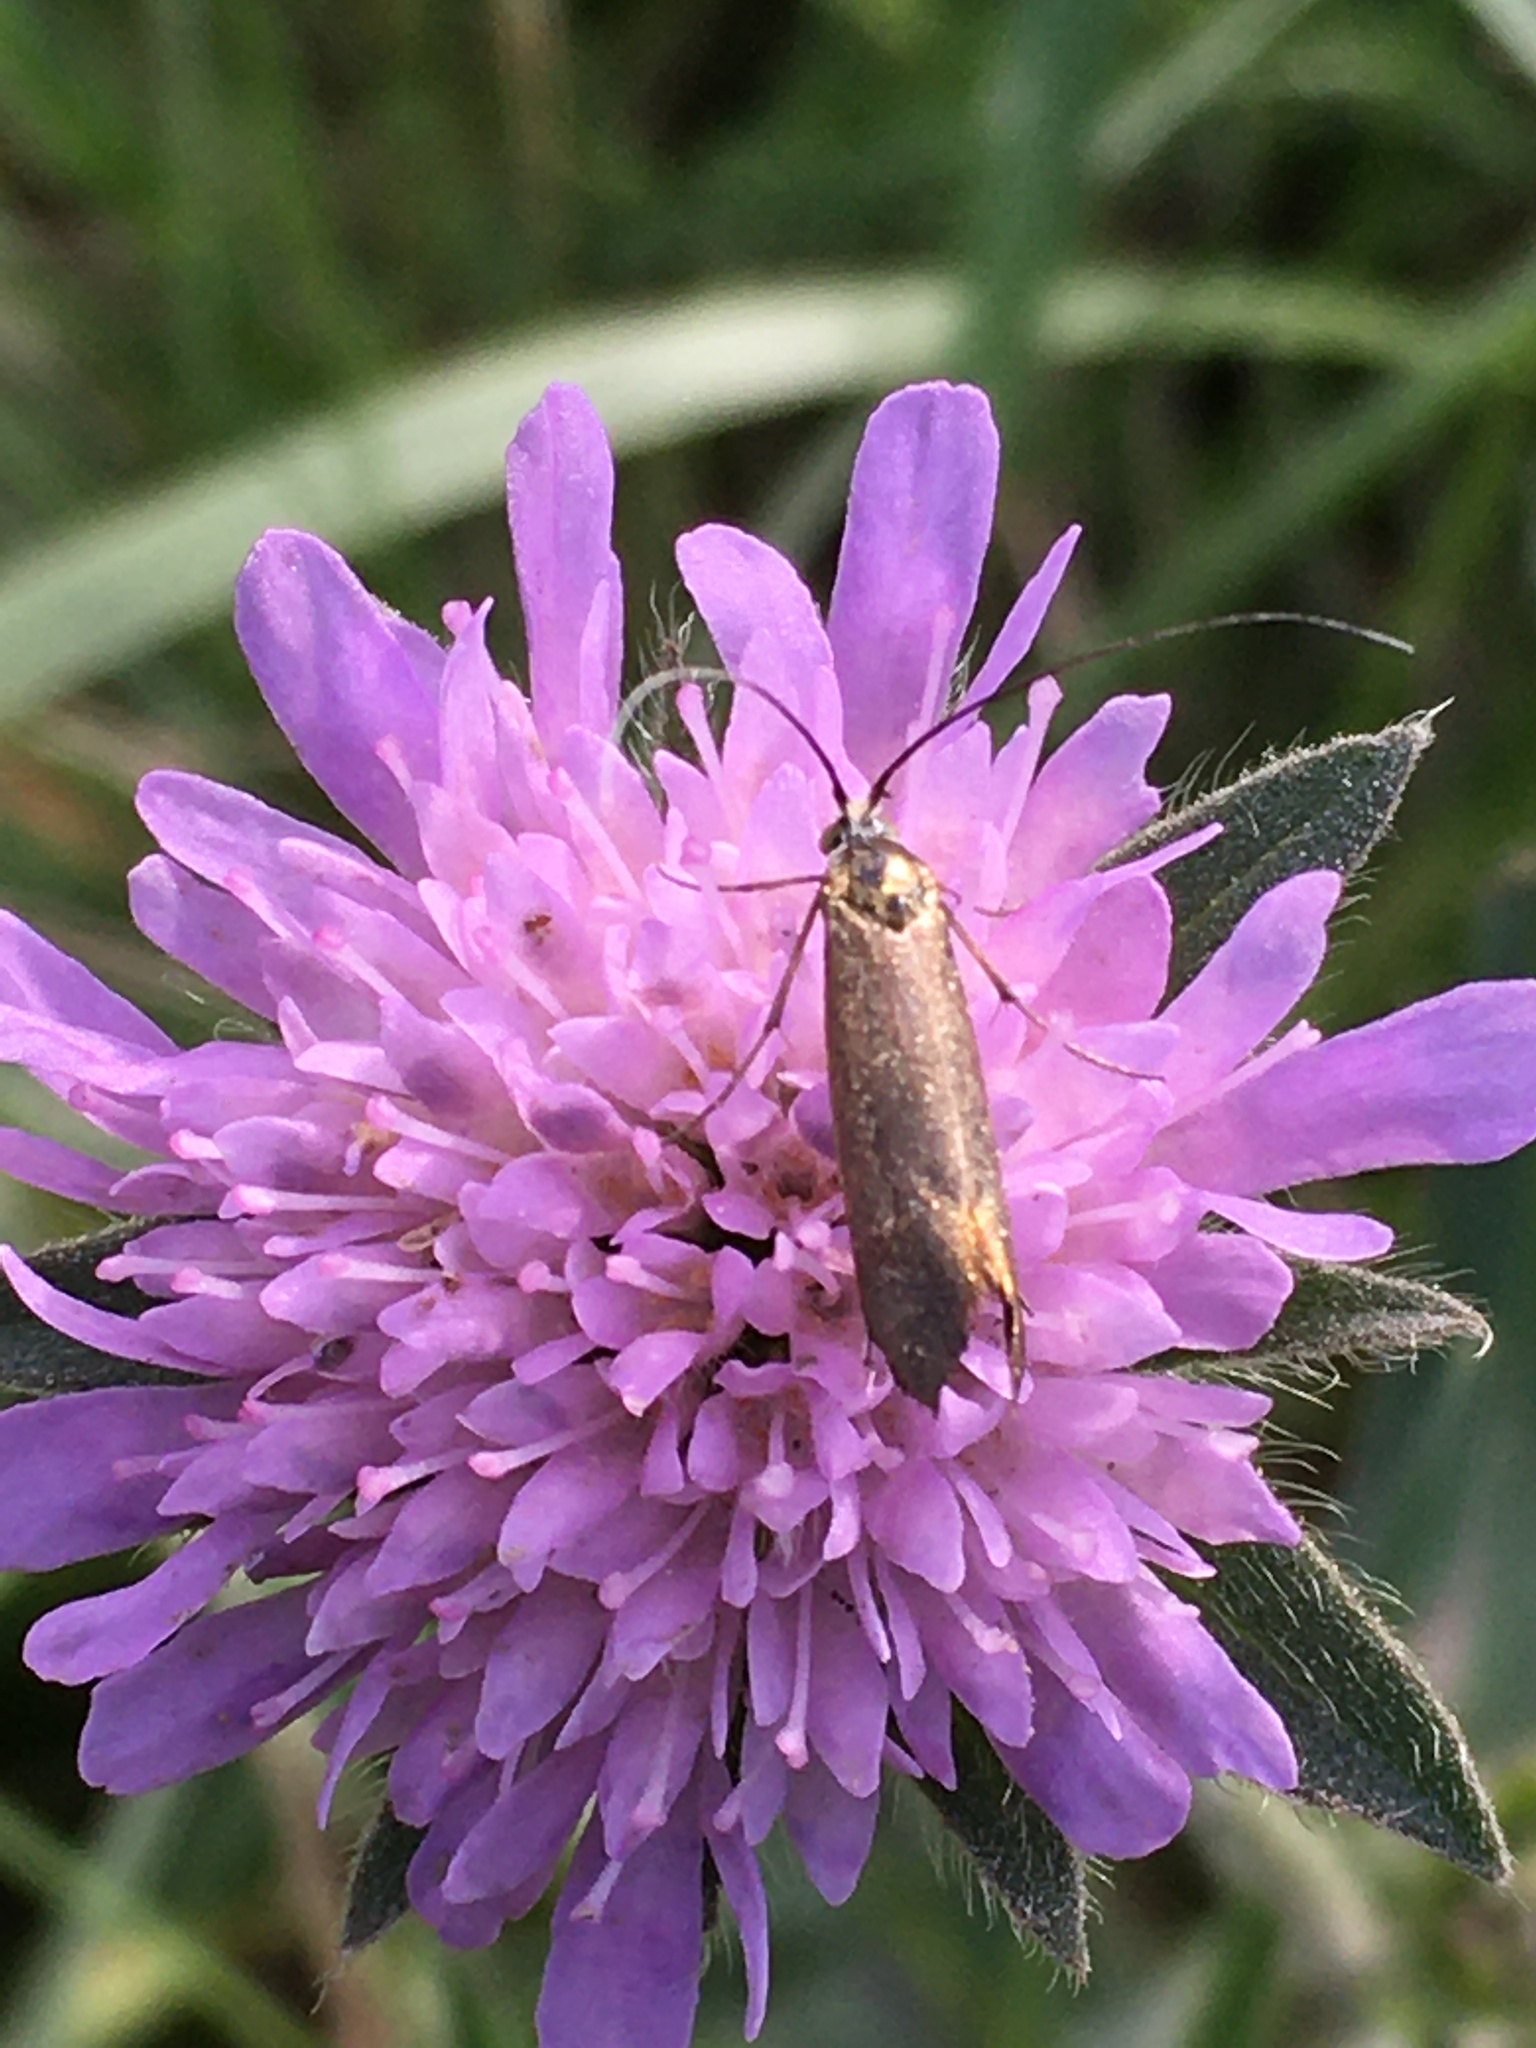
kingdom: Animalia
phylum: Arthropoda
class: Insecta
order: Lepidoptera
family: Adelidae
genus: Nemophora
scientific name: Nemophora metallica
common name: Brassy long-horn
